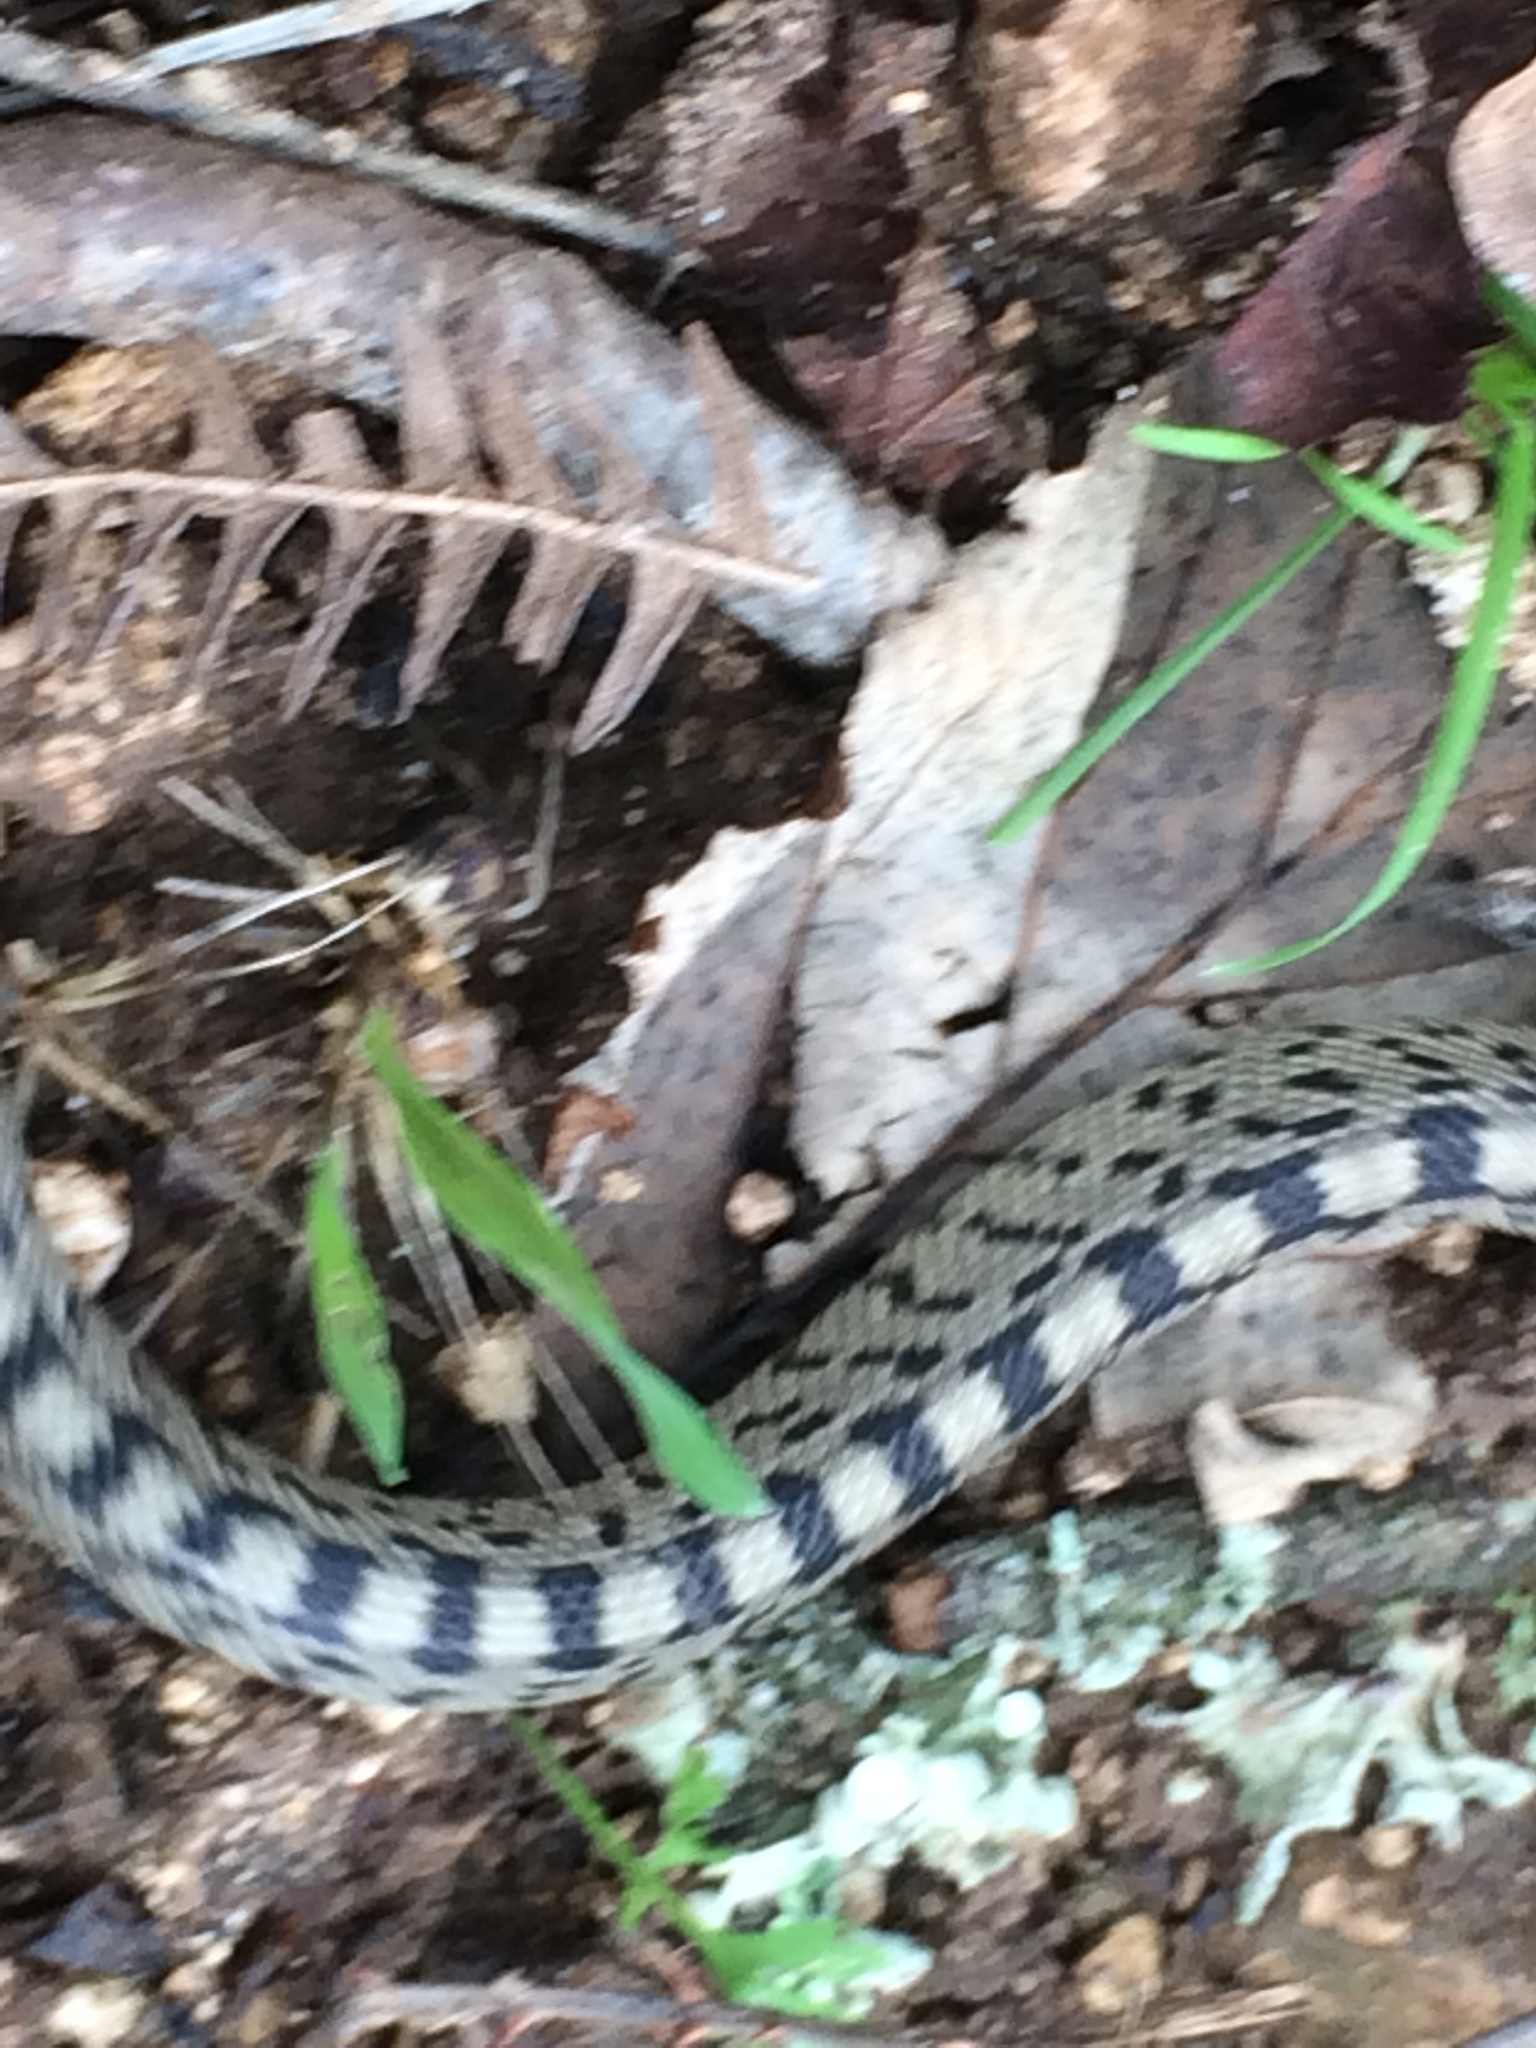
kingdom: Animalia
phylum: Chordata
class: Squamata
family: Colubridae
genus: Zamenis
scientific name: Zamenis scalaris
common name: Ladder snakes
